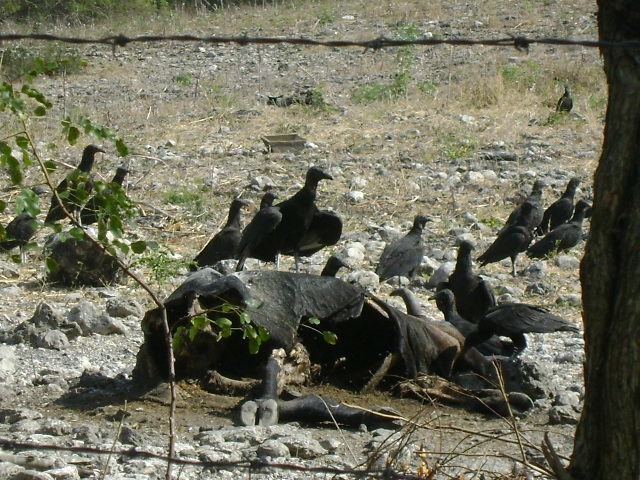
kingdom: Animalia
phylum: Chordata
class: Aves
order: Accipitriformes
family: Cathartidae
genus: Coragyps
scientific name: Coragyps atratus
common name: Black vulture
